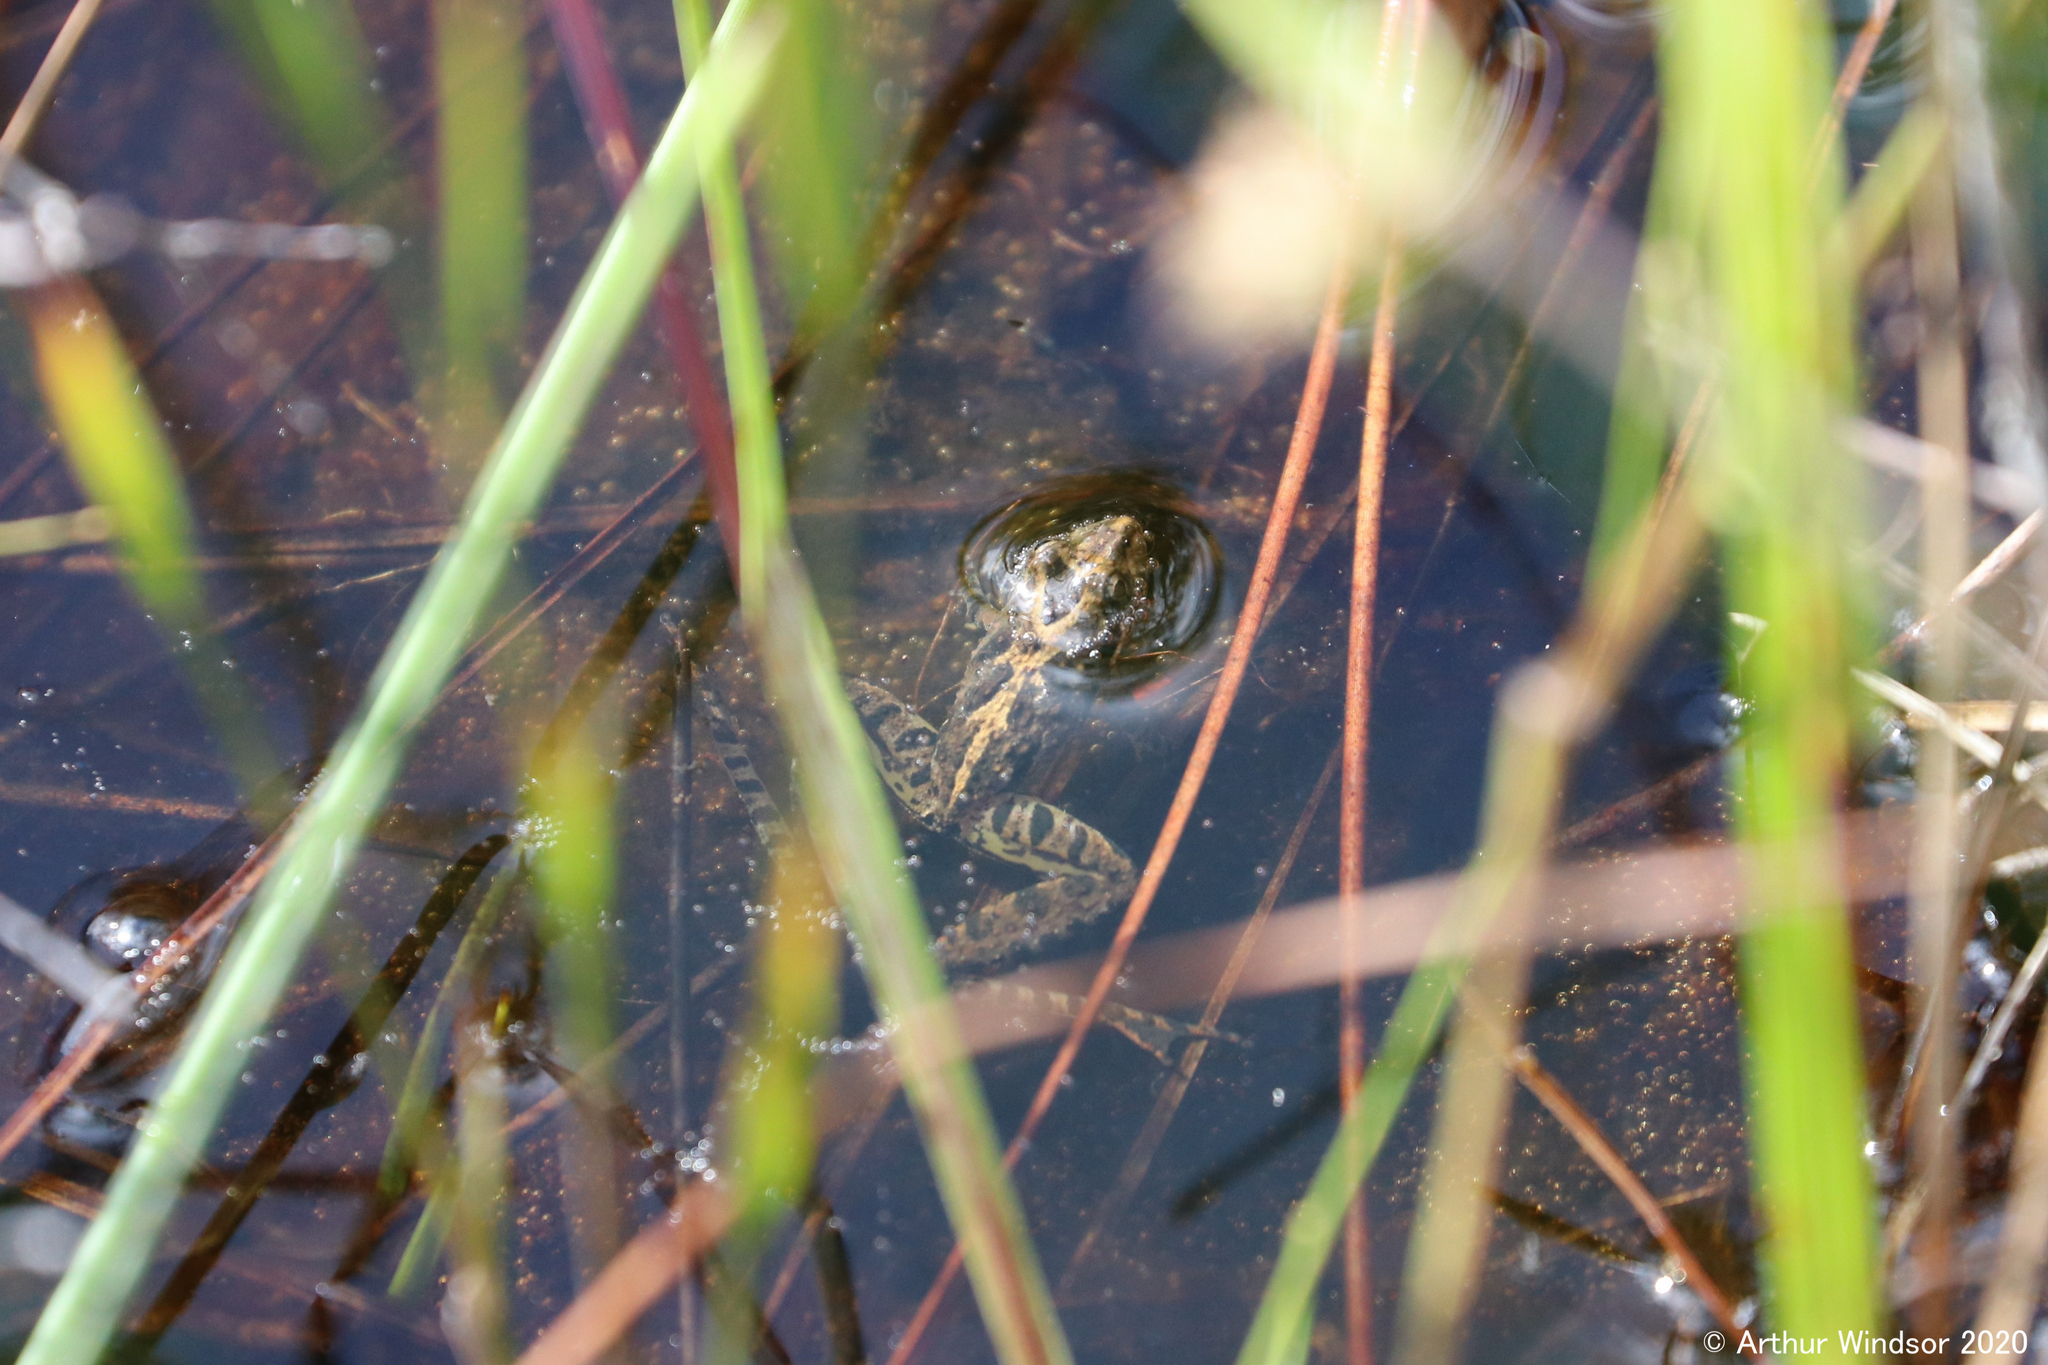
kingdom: Animalia
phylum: Chordata
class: Amphibia
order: Anura
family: Hylidae
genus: Acris
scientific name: Acris gryllus
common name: Southern cricket frog
